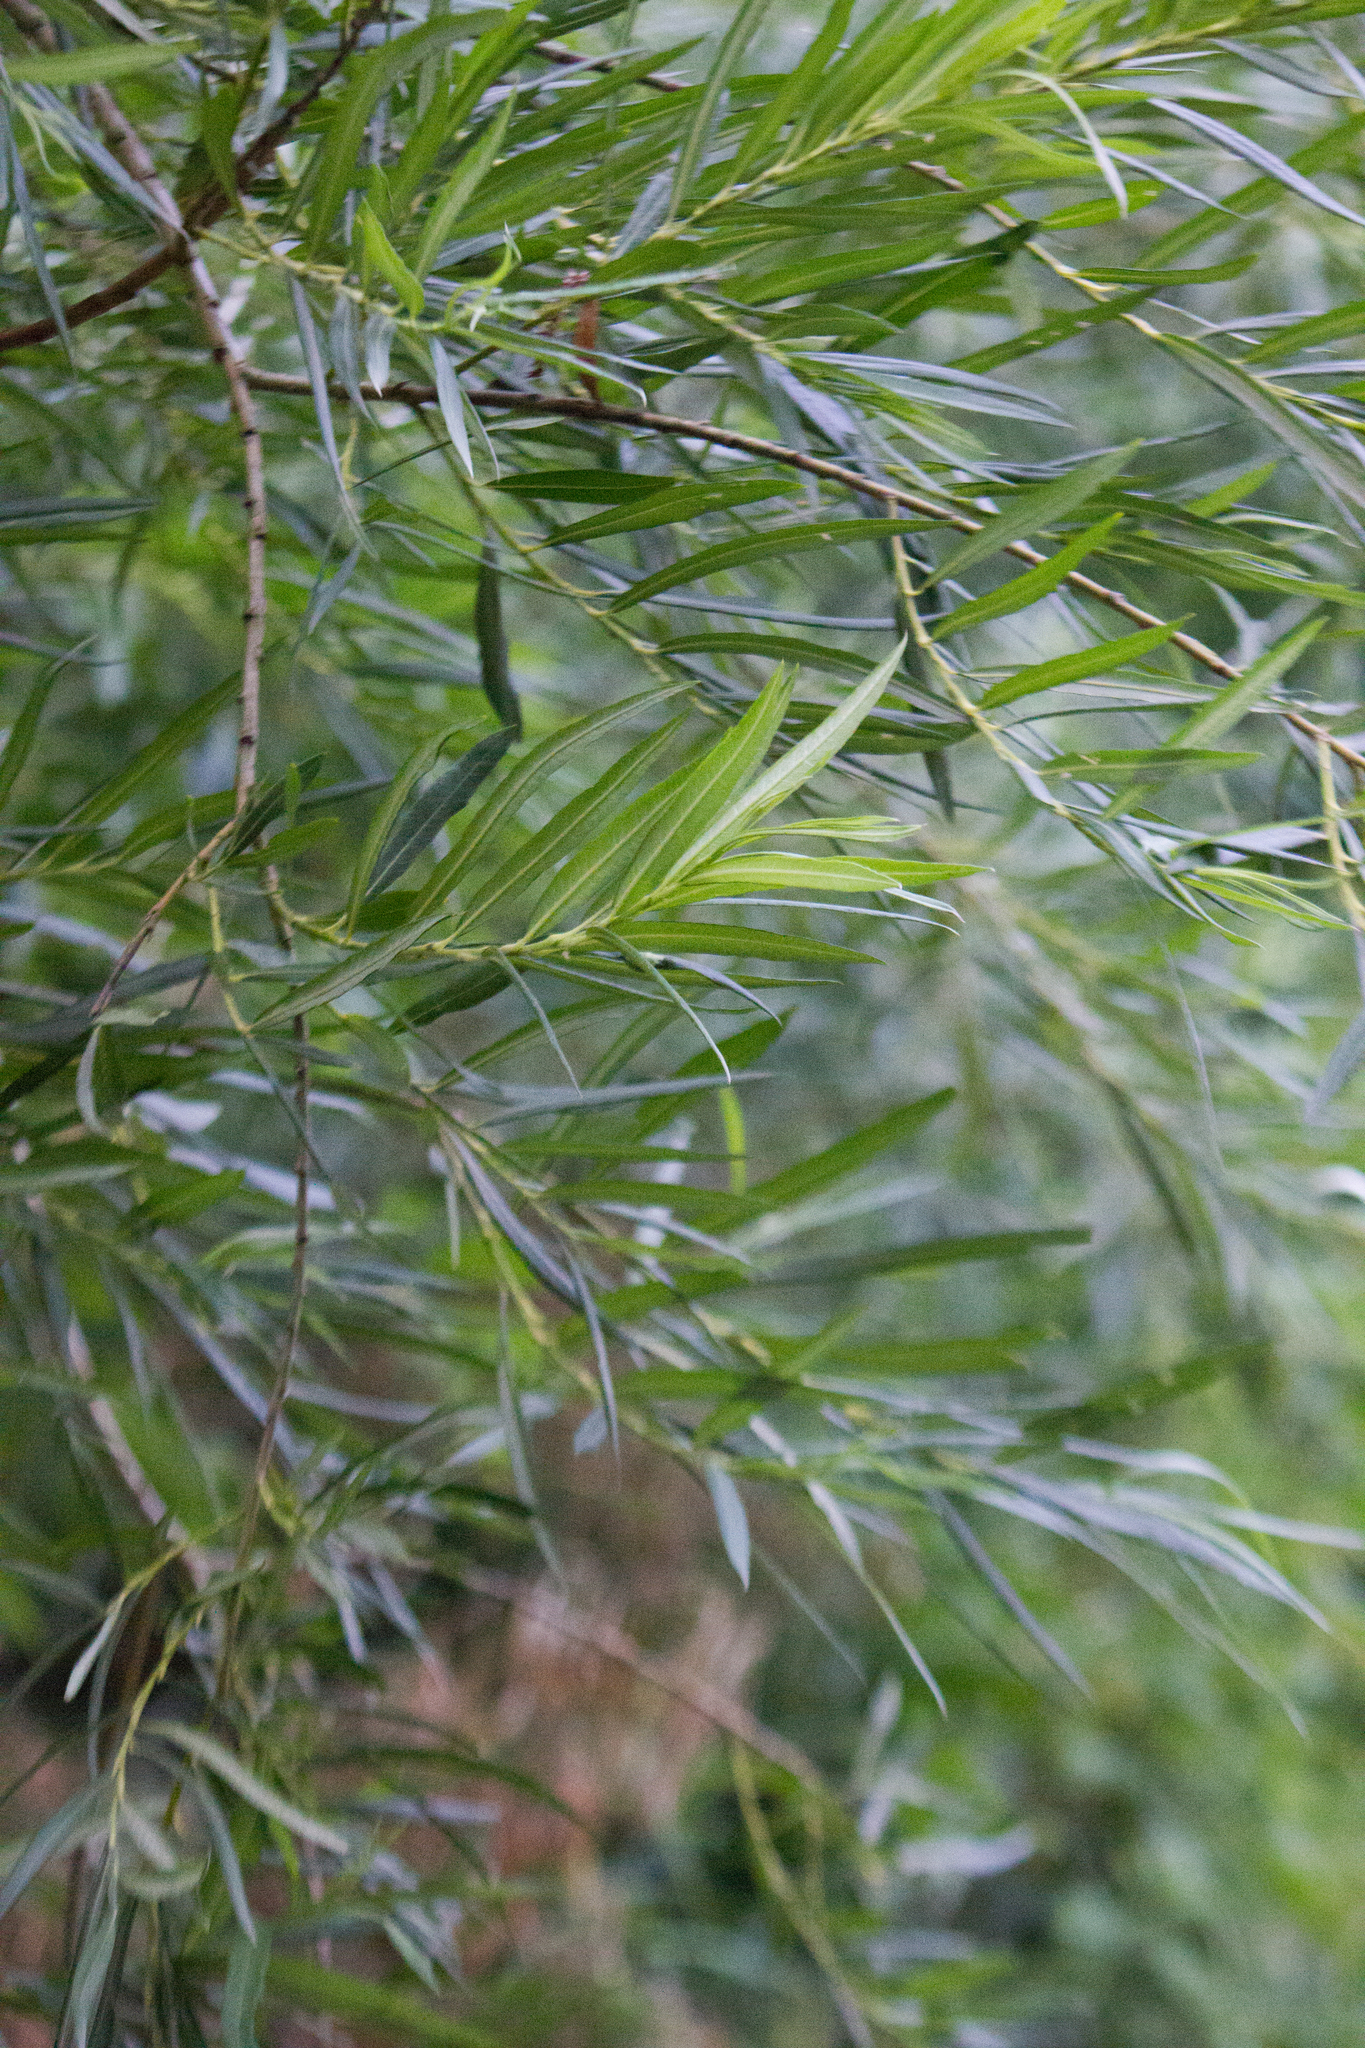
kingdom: Plantae
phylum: Tracheophyta
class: Magnoliopsida
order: Malpighiales
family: Salicaceae
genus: Salix
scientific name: Salix viminalis
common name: Osier
